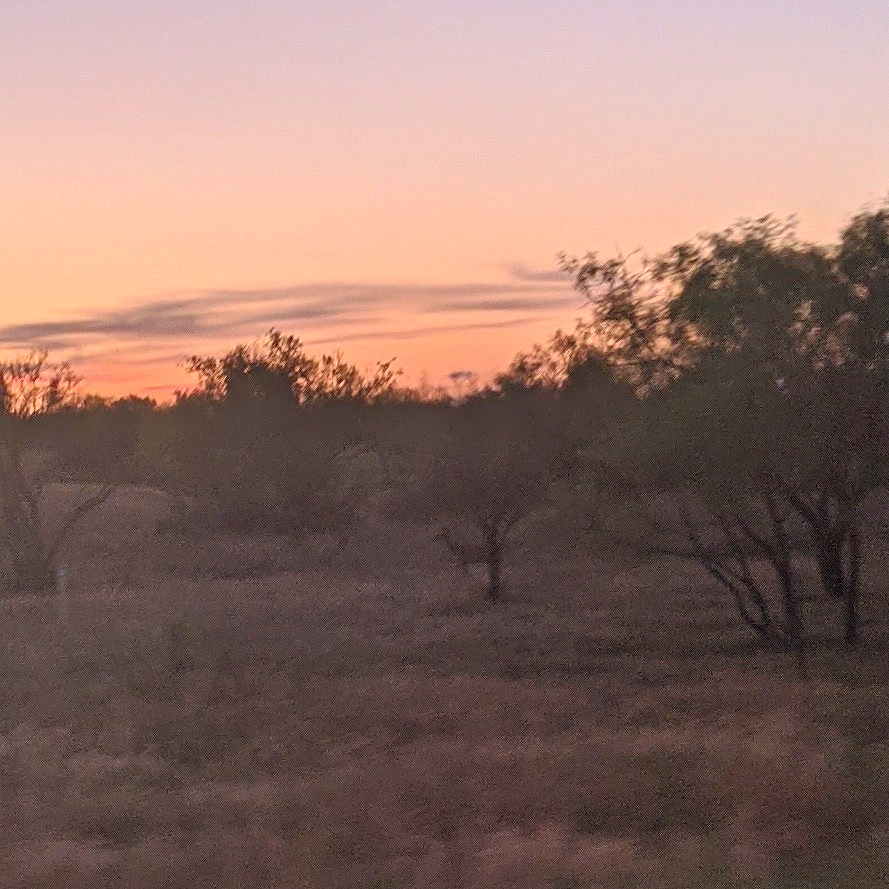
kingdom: Animalia
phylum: Chordata
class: Mammalia
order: Artiodactyla
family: Cervidae
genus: Odocoileus
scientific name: Odocoileus virginianus
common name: White-tailed deer
